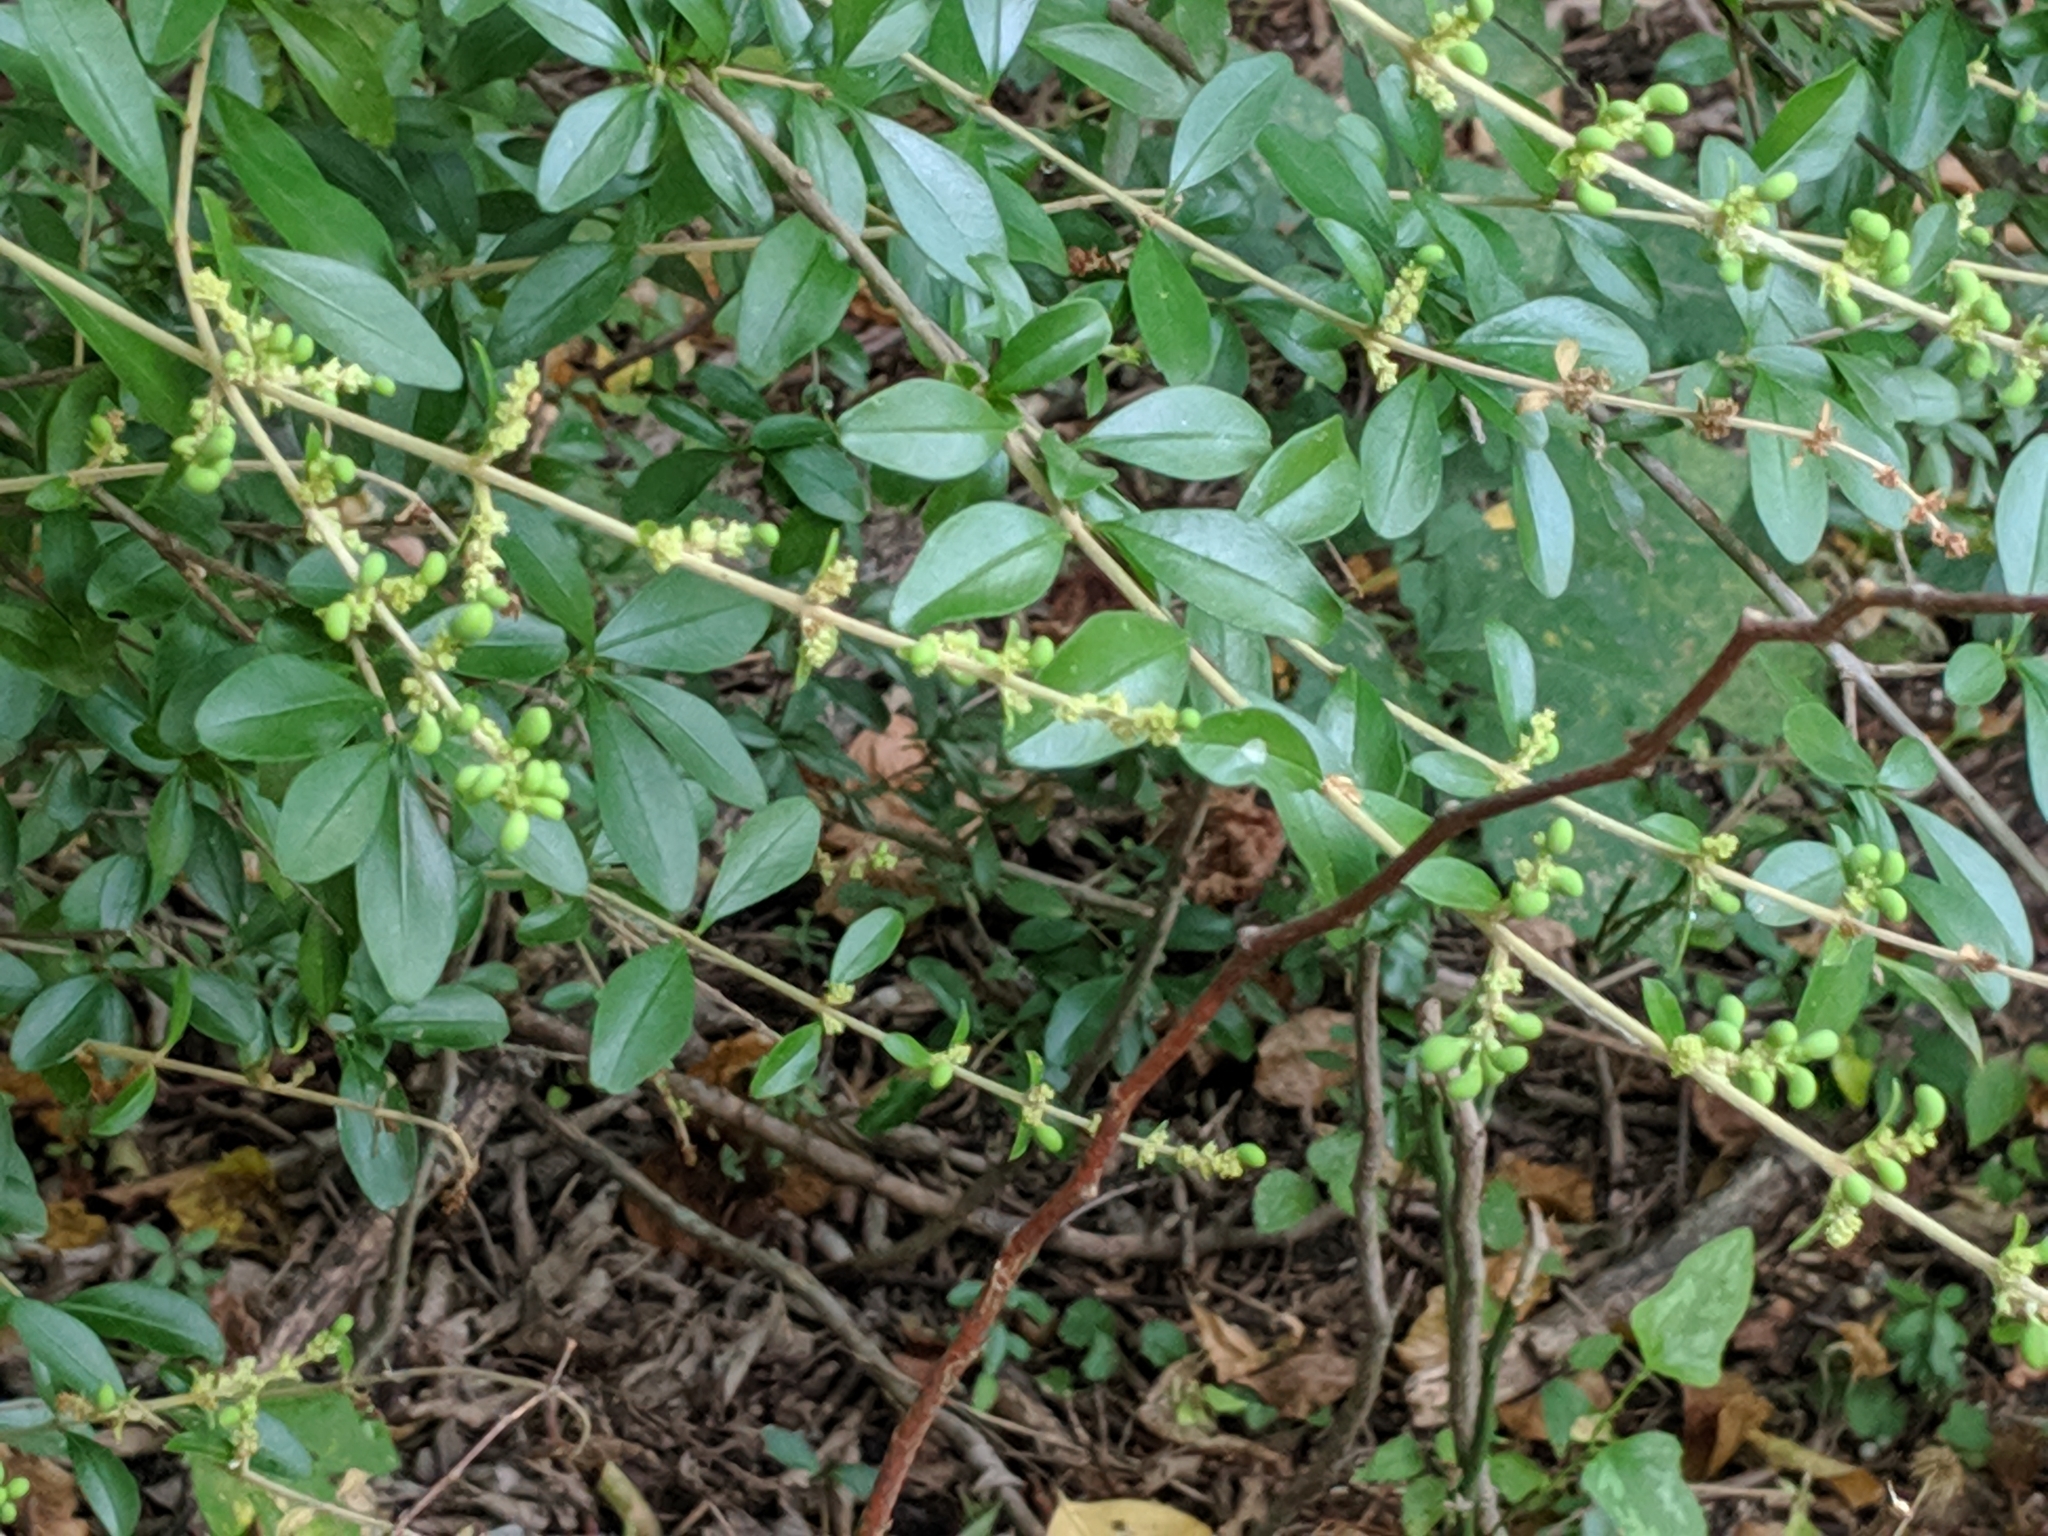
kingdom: Plantae
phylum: Tracheophyta
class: Magnoliopsida
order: Lamiales
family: Oleaceae
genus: Ligustrum
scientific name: Ligustrum quihoui
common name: Waxyleaf privet
